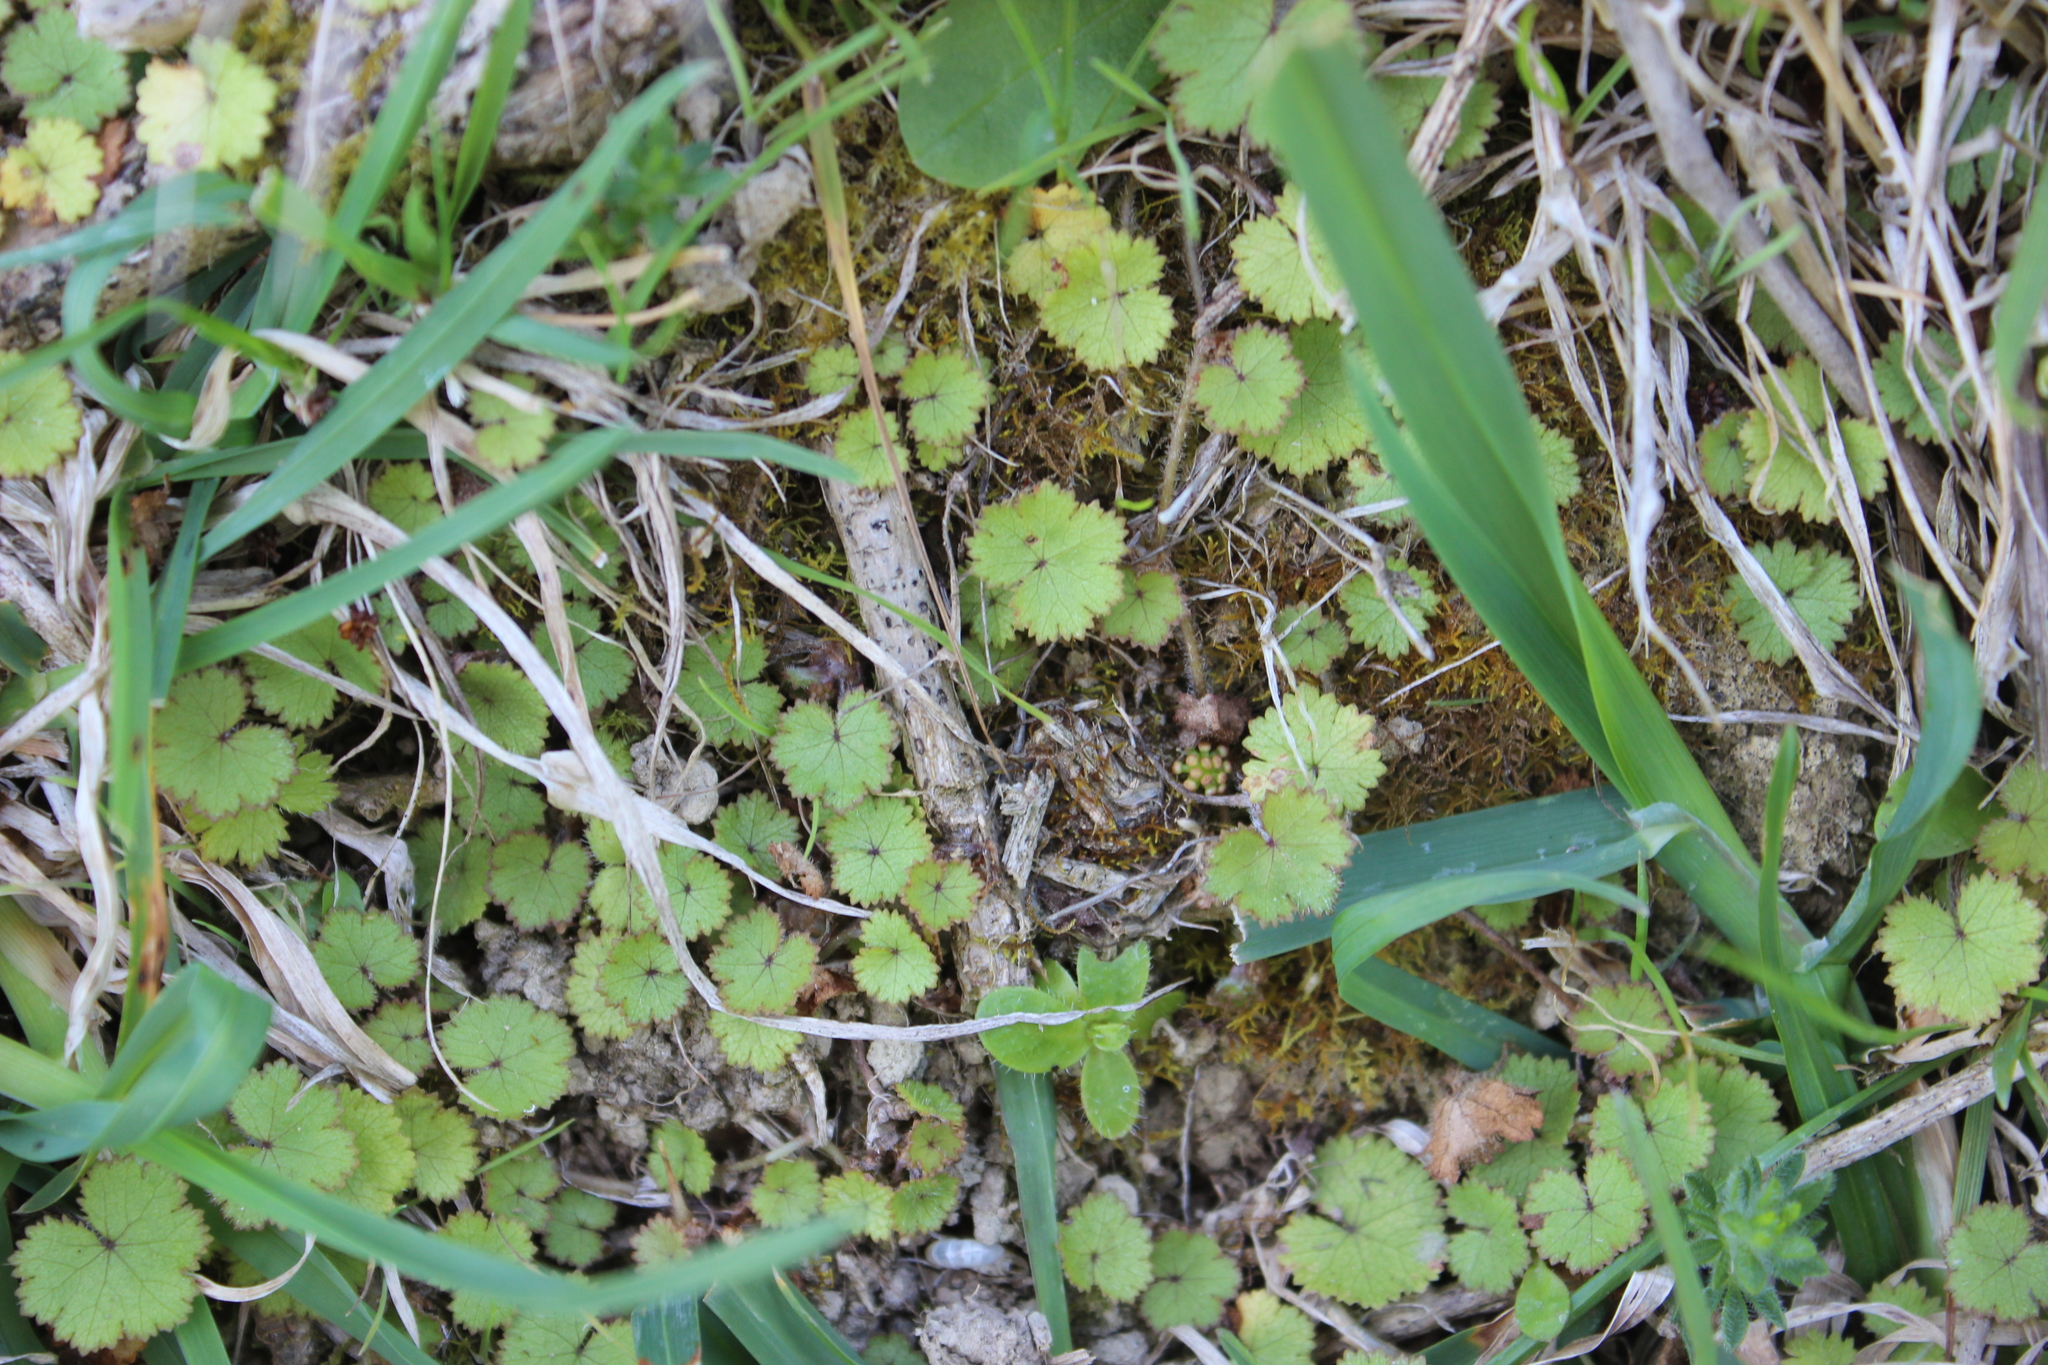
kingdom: Plantae
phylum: Tracheophyta
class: Magnoliopsida
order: Apiales
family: Araliaceae
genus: Hydrocotyle
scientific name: Hydrocotyle moschata
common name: Hairy pennywort
